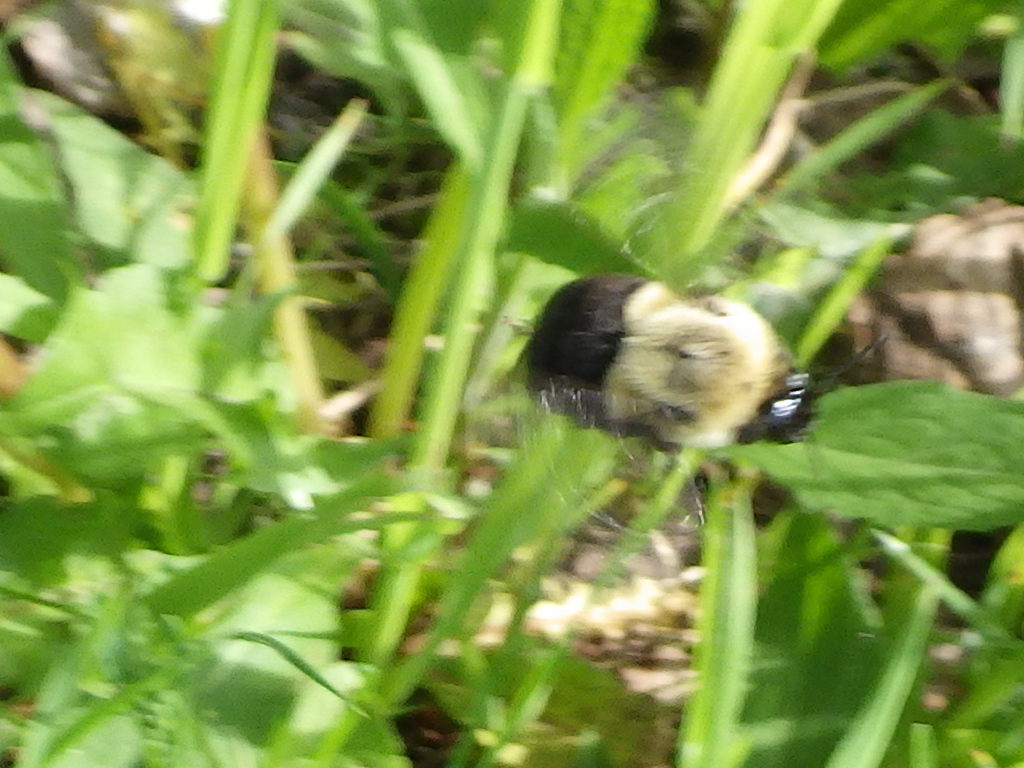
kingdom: Animalia
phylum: Arthropoda
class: Insecta
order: Hymenoptera
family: Apidae
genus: Bombus
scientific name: Bombus impatiens
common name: Common eastern bumble bee
